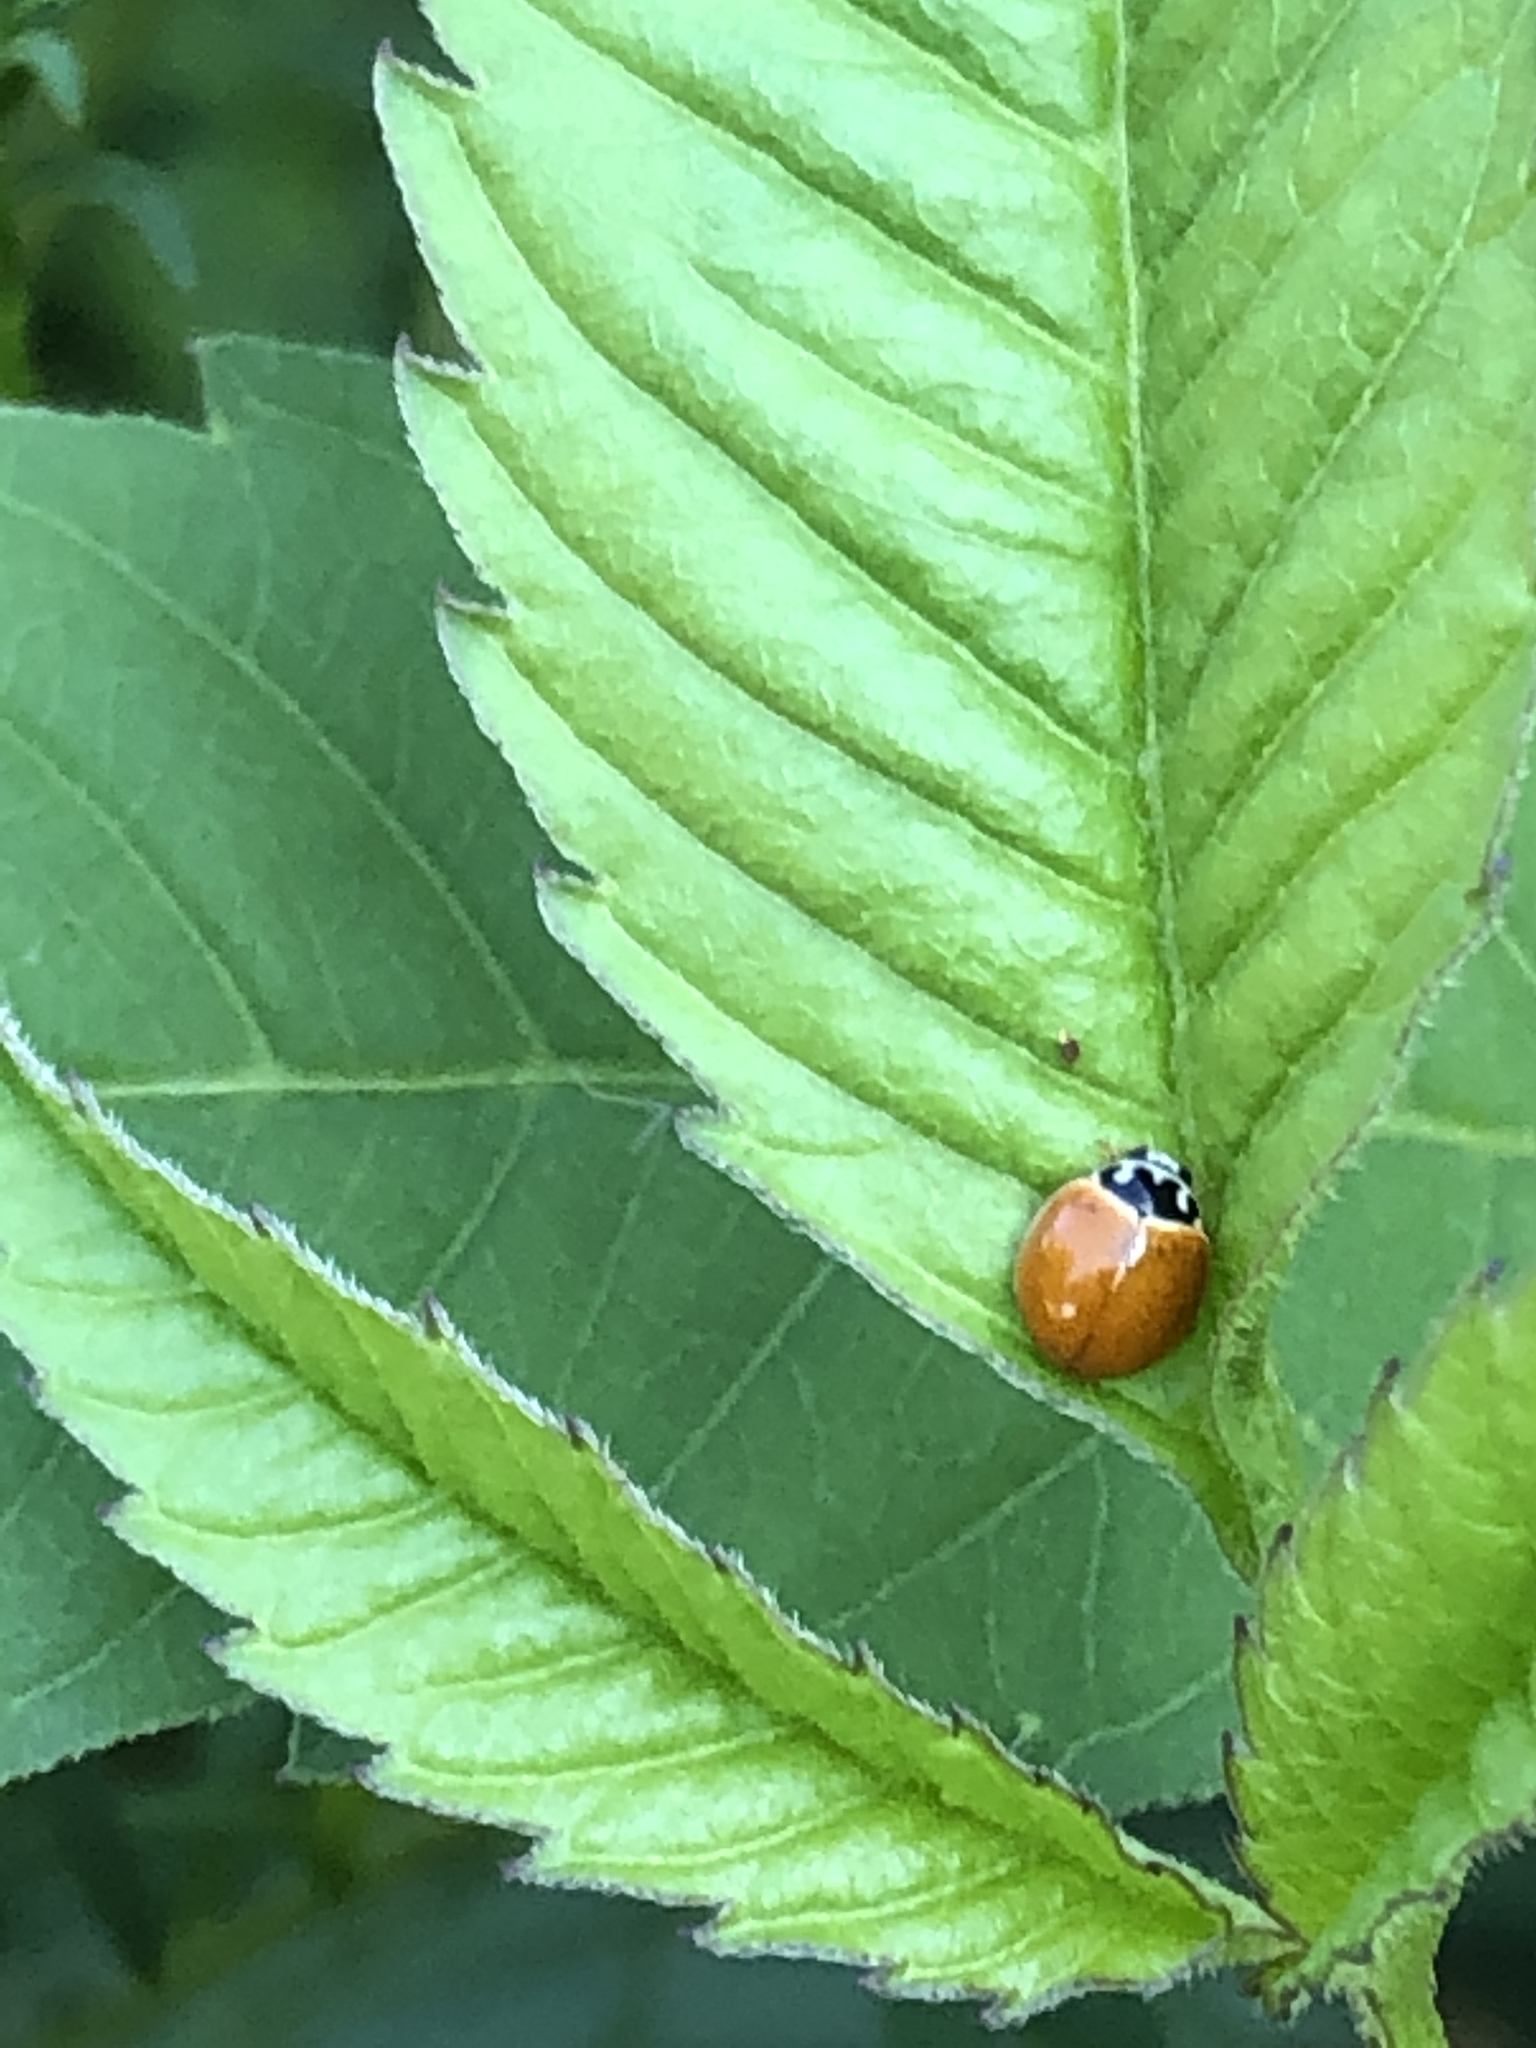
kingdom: Animalia
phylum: Arthropoda
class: Insecta
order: Coleoptera
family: Coccinellidae
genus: Cycloneda
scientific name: Cycloneda munda
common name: Polished lady beetle
